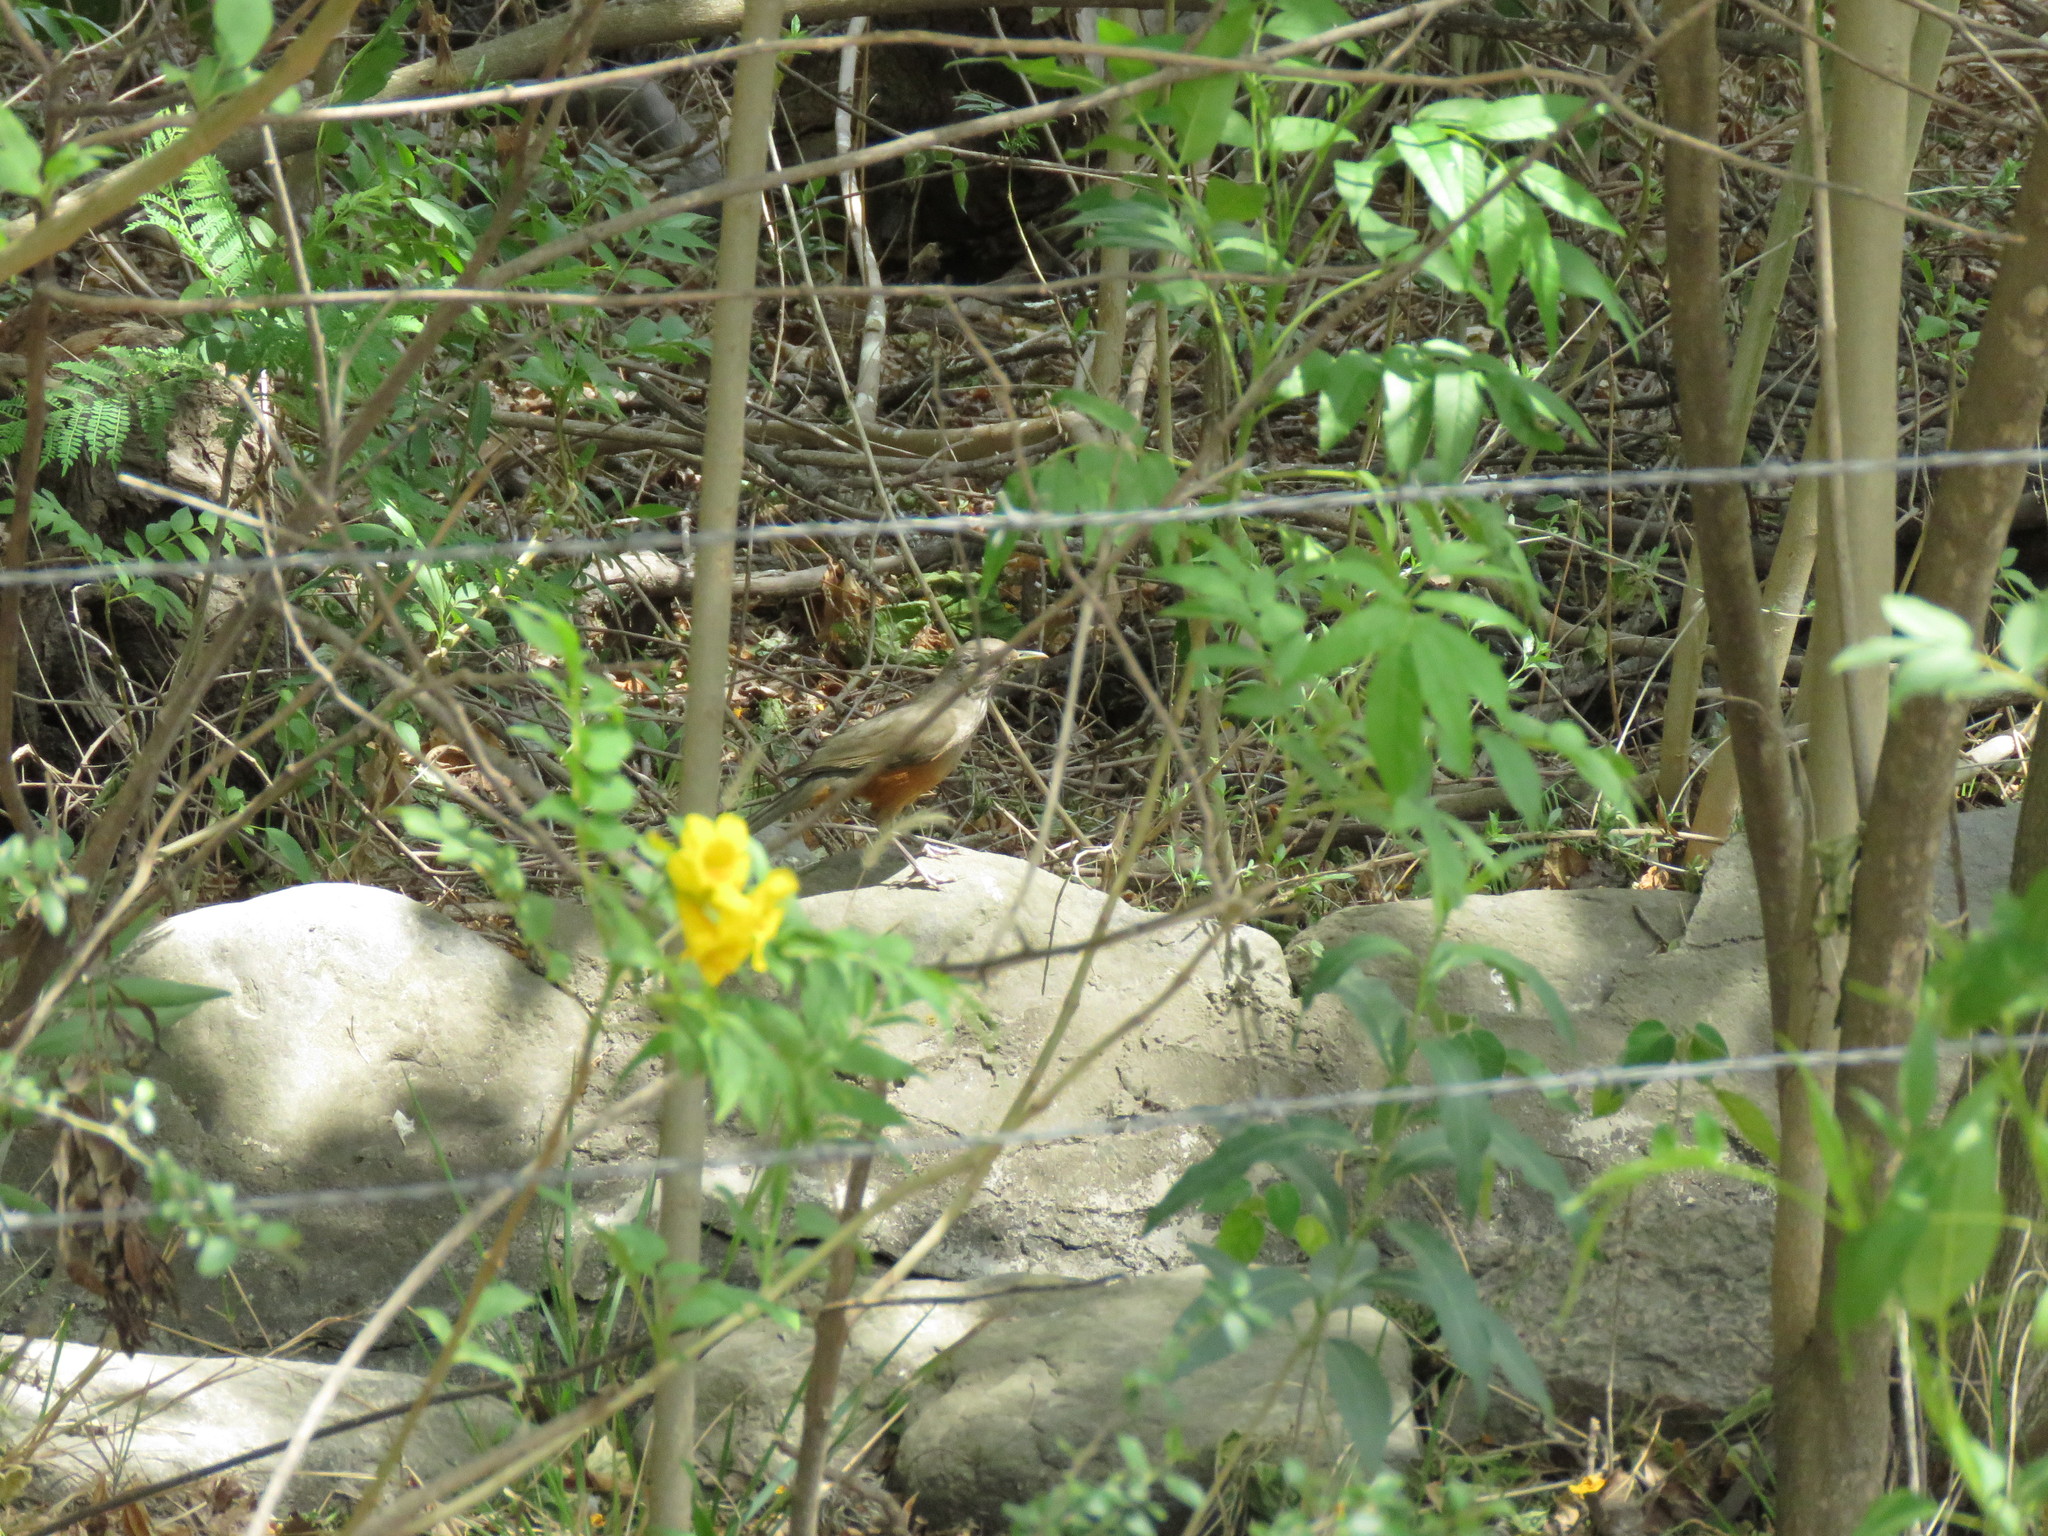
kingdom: Animalia
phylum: Chordata
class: Aves
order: Passeriformes
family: Turdidae
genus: Turdus
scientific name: Turdus rufiventris
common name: Rufous-bellied thrush
